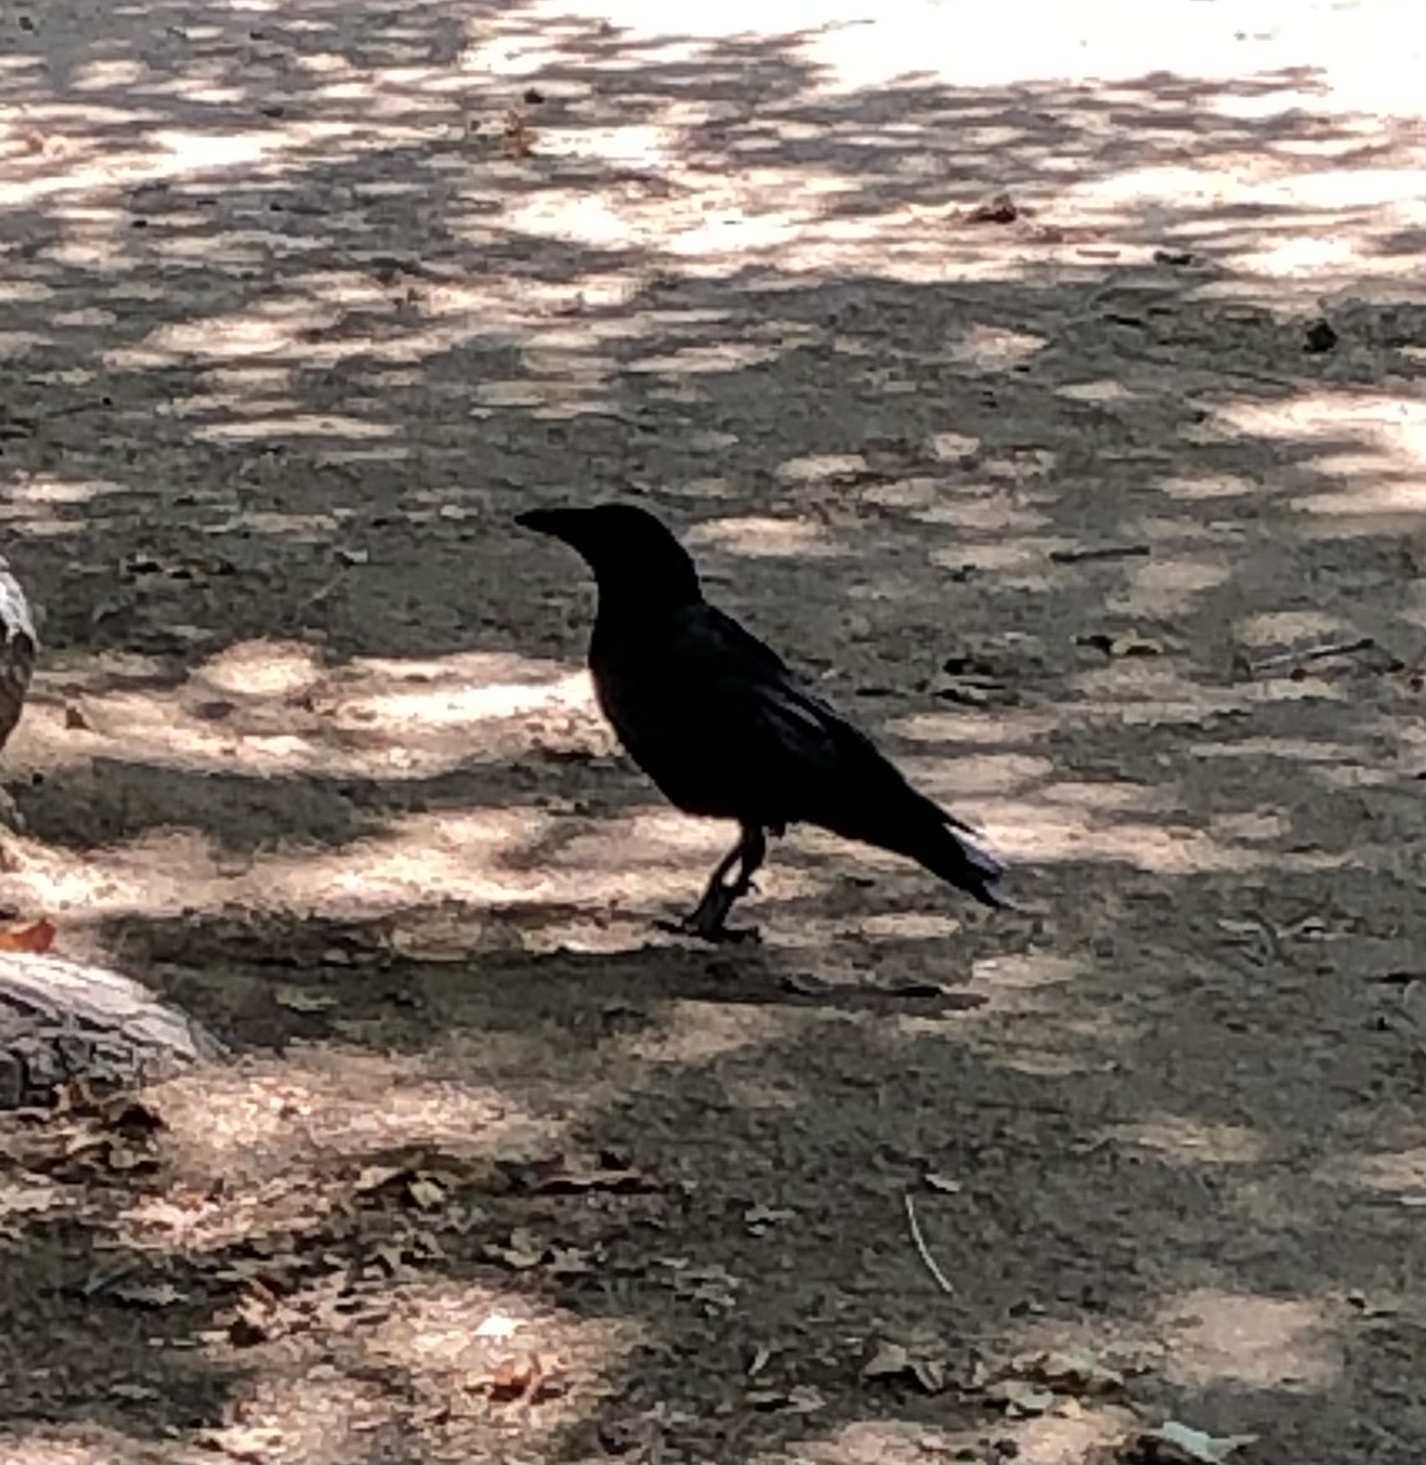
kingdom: Animalia
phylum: Chordata
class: Aves
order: Passeriformes
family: Corvidae
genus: Corvus
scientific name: Corvus brachyrhynchos
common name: American crow
